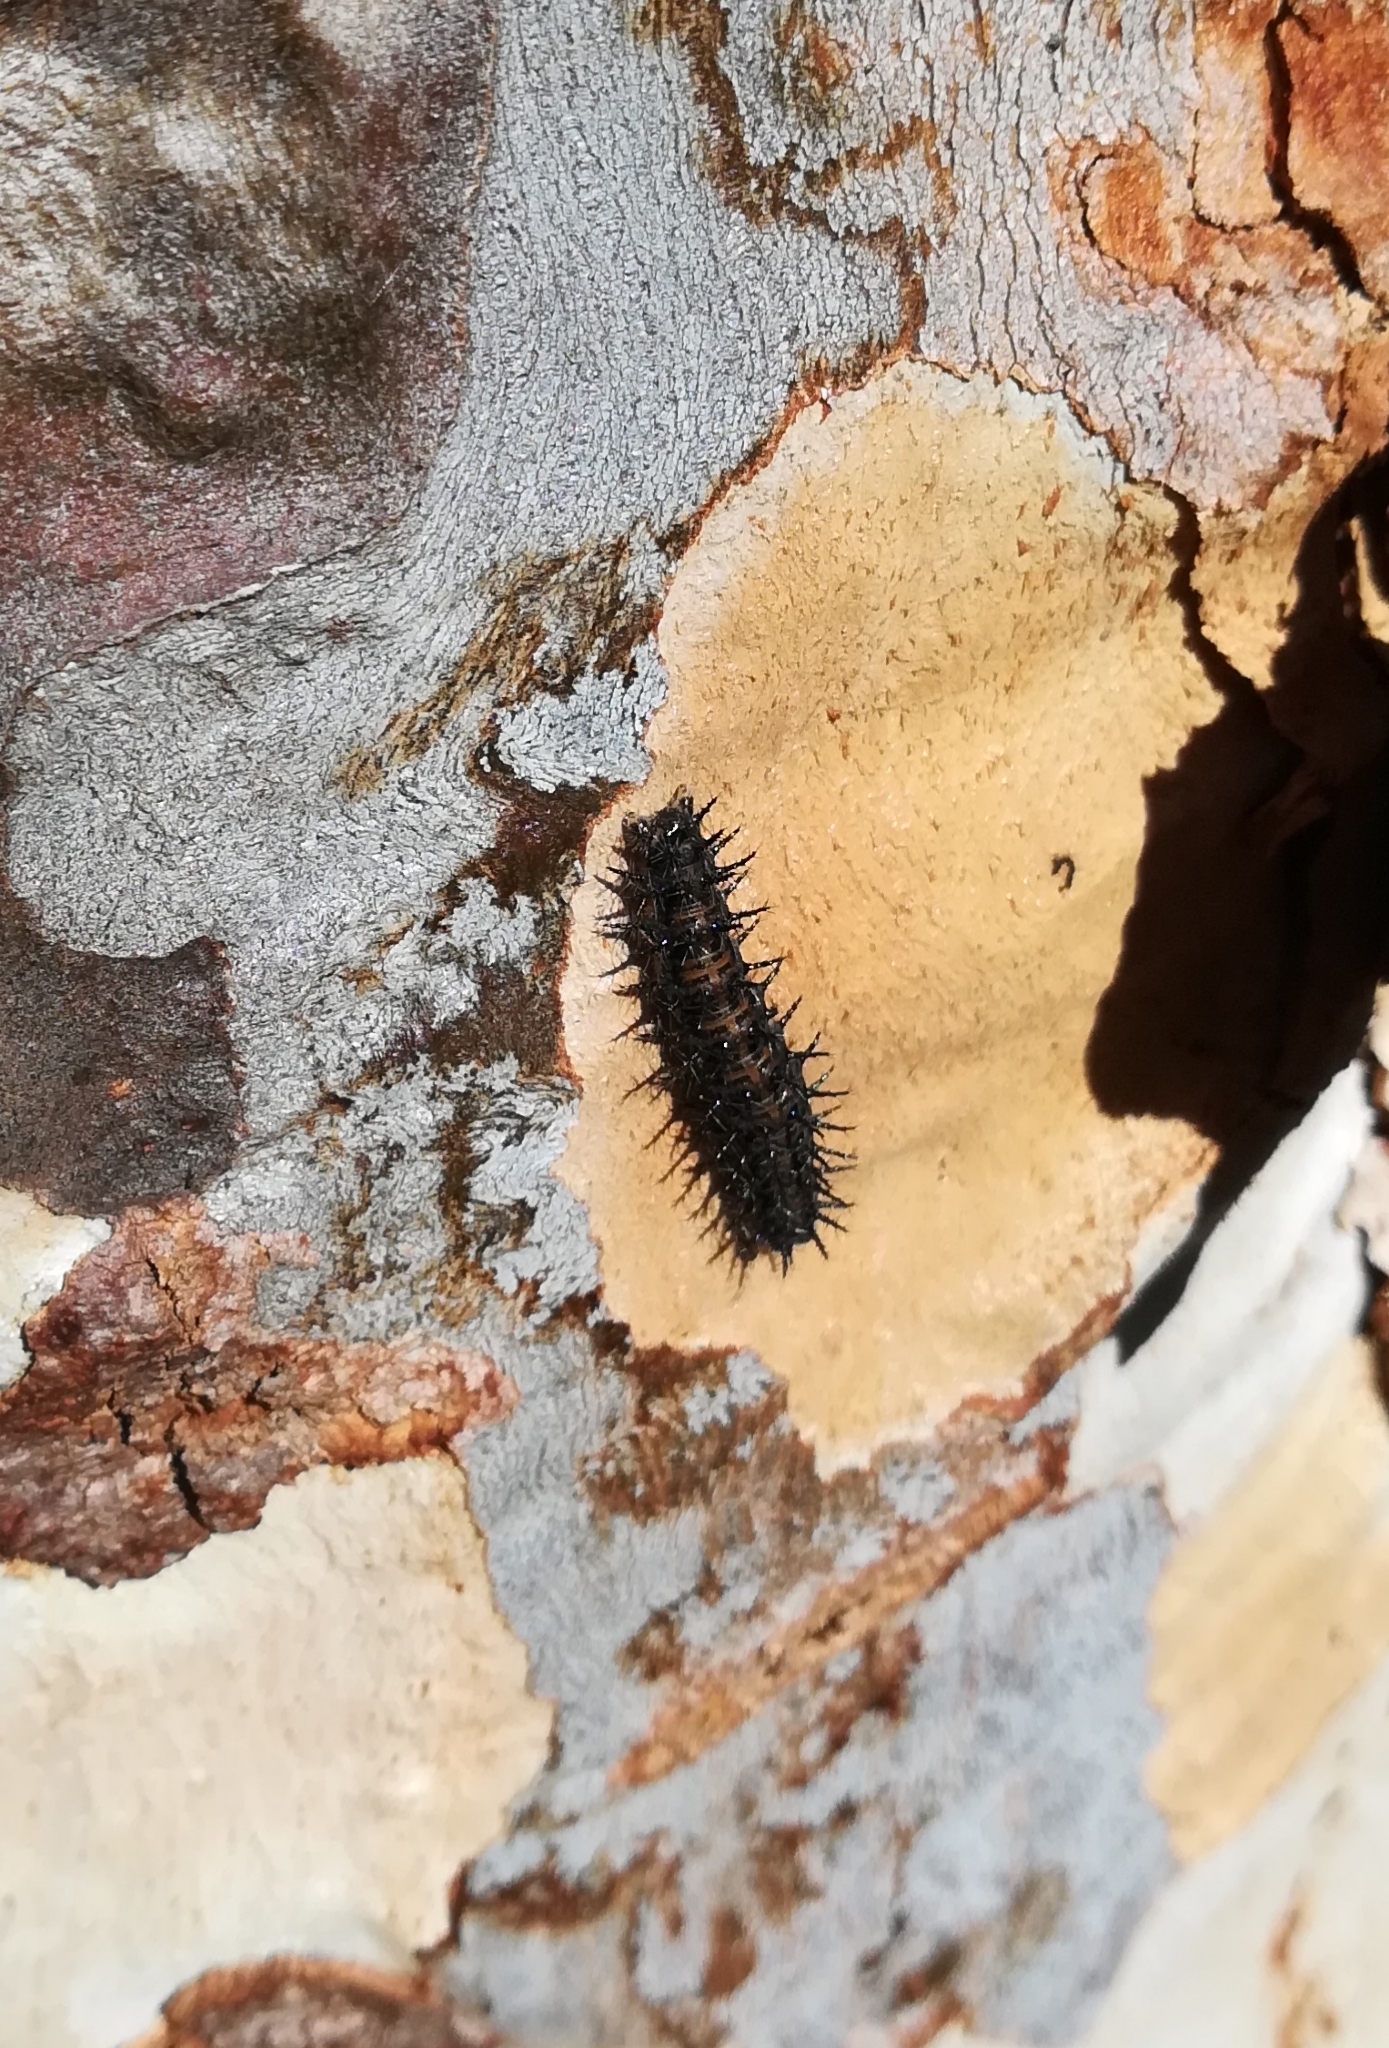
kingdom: Animalia
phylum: Arthropoda
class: Insecta
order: Lepidoptera
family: Nymphalidae
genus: Acraea
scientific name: Acraea horta
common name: Garden acraea
